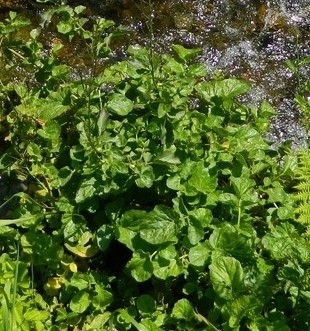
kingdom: Plantae
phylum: Tracheophyta
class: Magnoliopsida
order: Brassicales
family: Brassicaceae
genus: Nasturtium
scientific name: Nasturtium officinale
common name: Watercress
